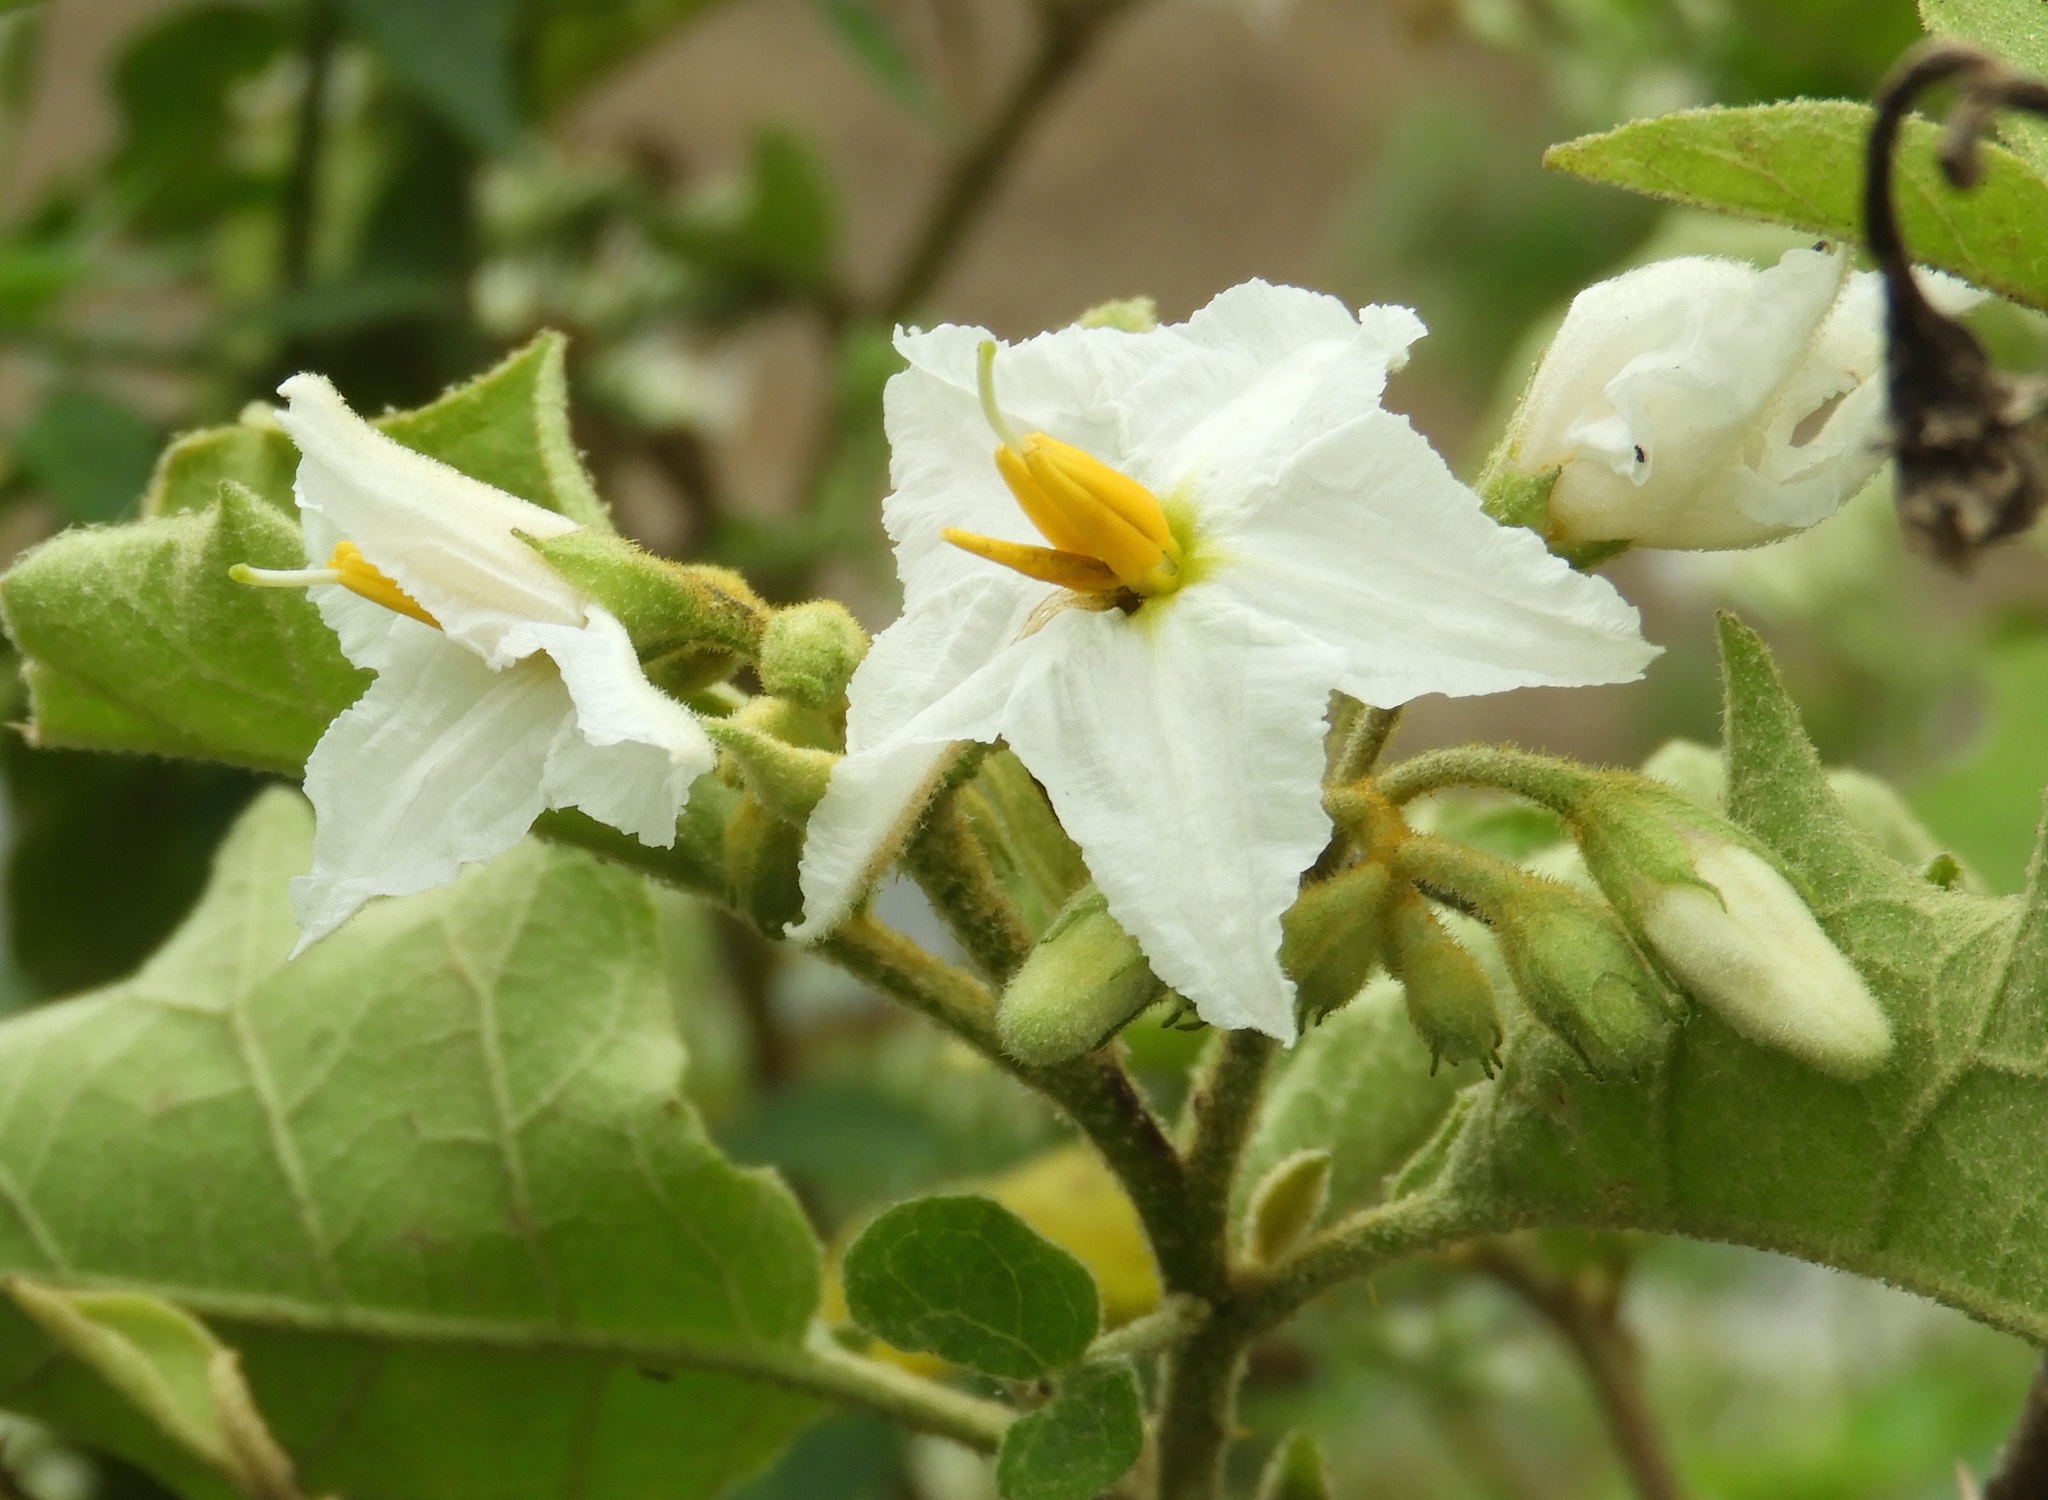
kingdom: Plantae
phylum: Tracheophyta
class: Magnoliopsida
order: Solanales
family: Solanaceae
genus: Solanum
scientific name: Solanum ferrugineum
